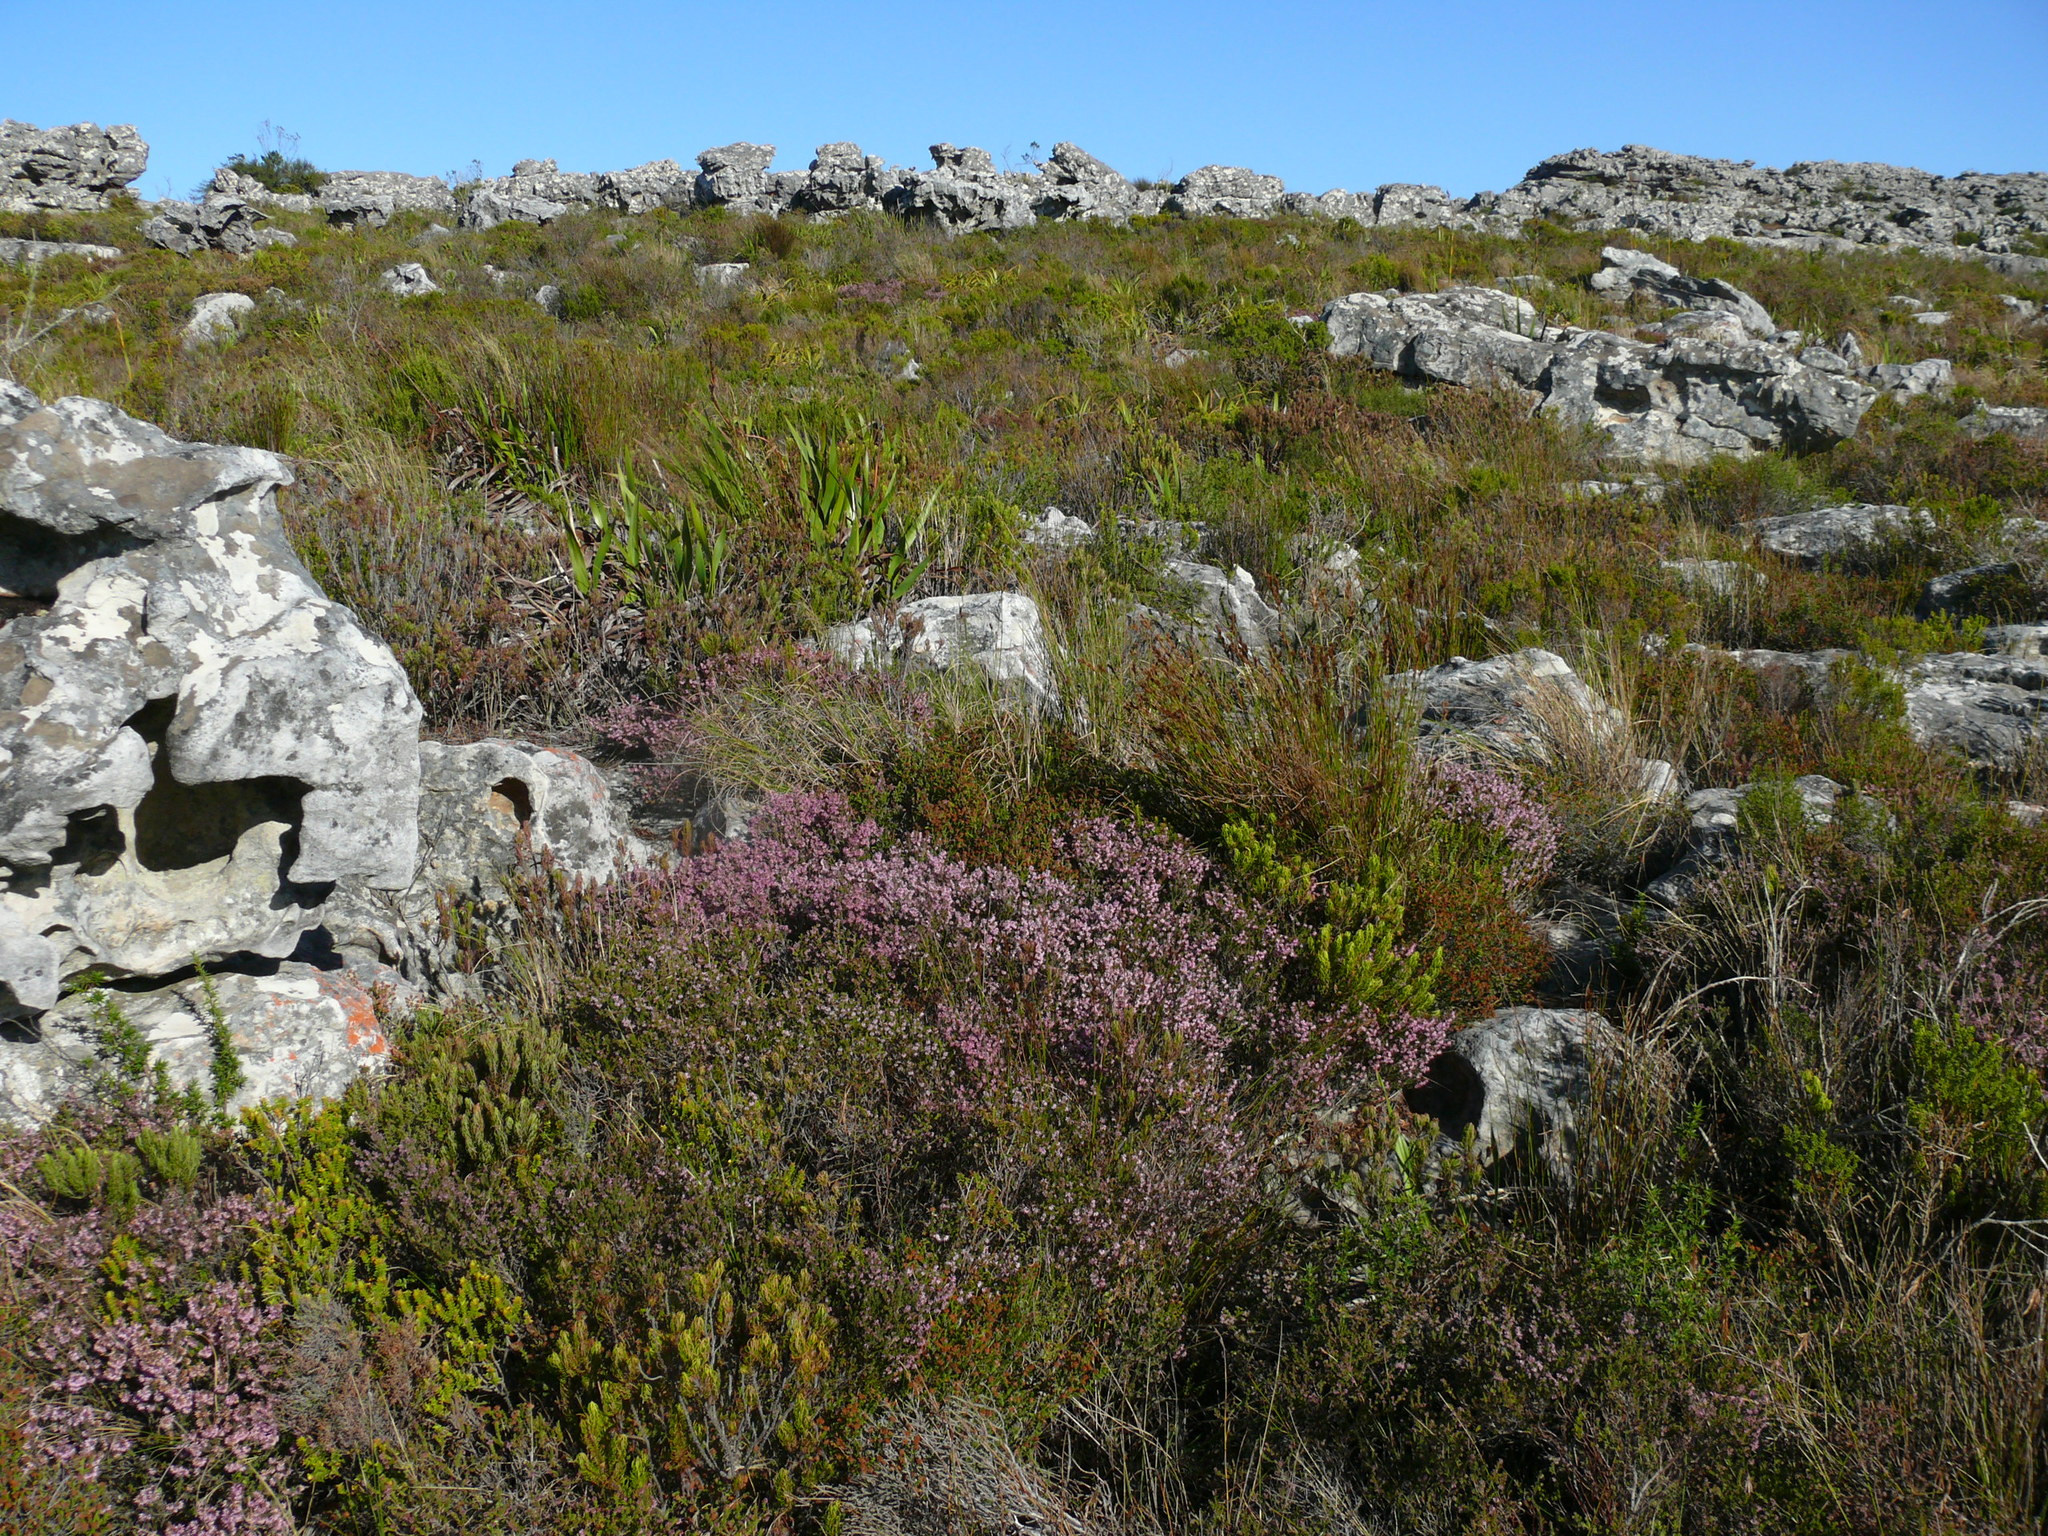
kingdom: Plantae
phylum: Tracheophyta
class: Magnoliopsida
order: Ericales
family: Ericaceae
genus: Erica
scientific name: Erica glabella
